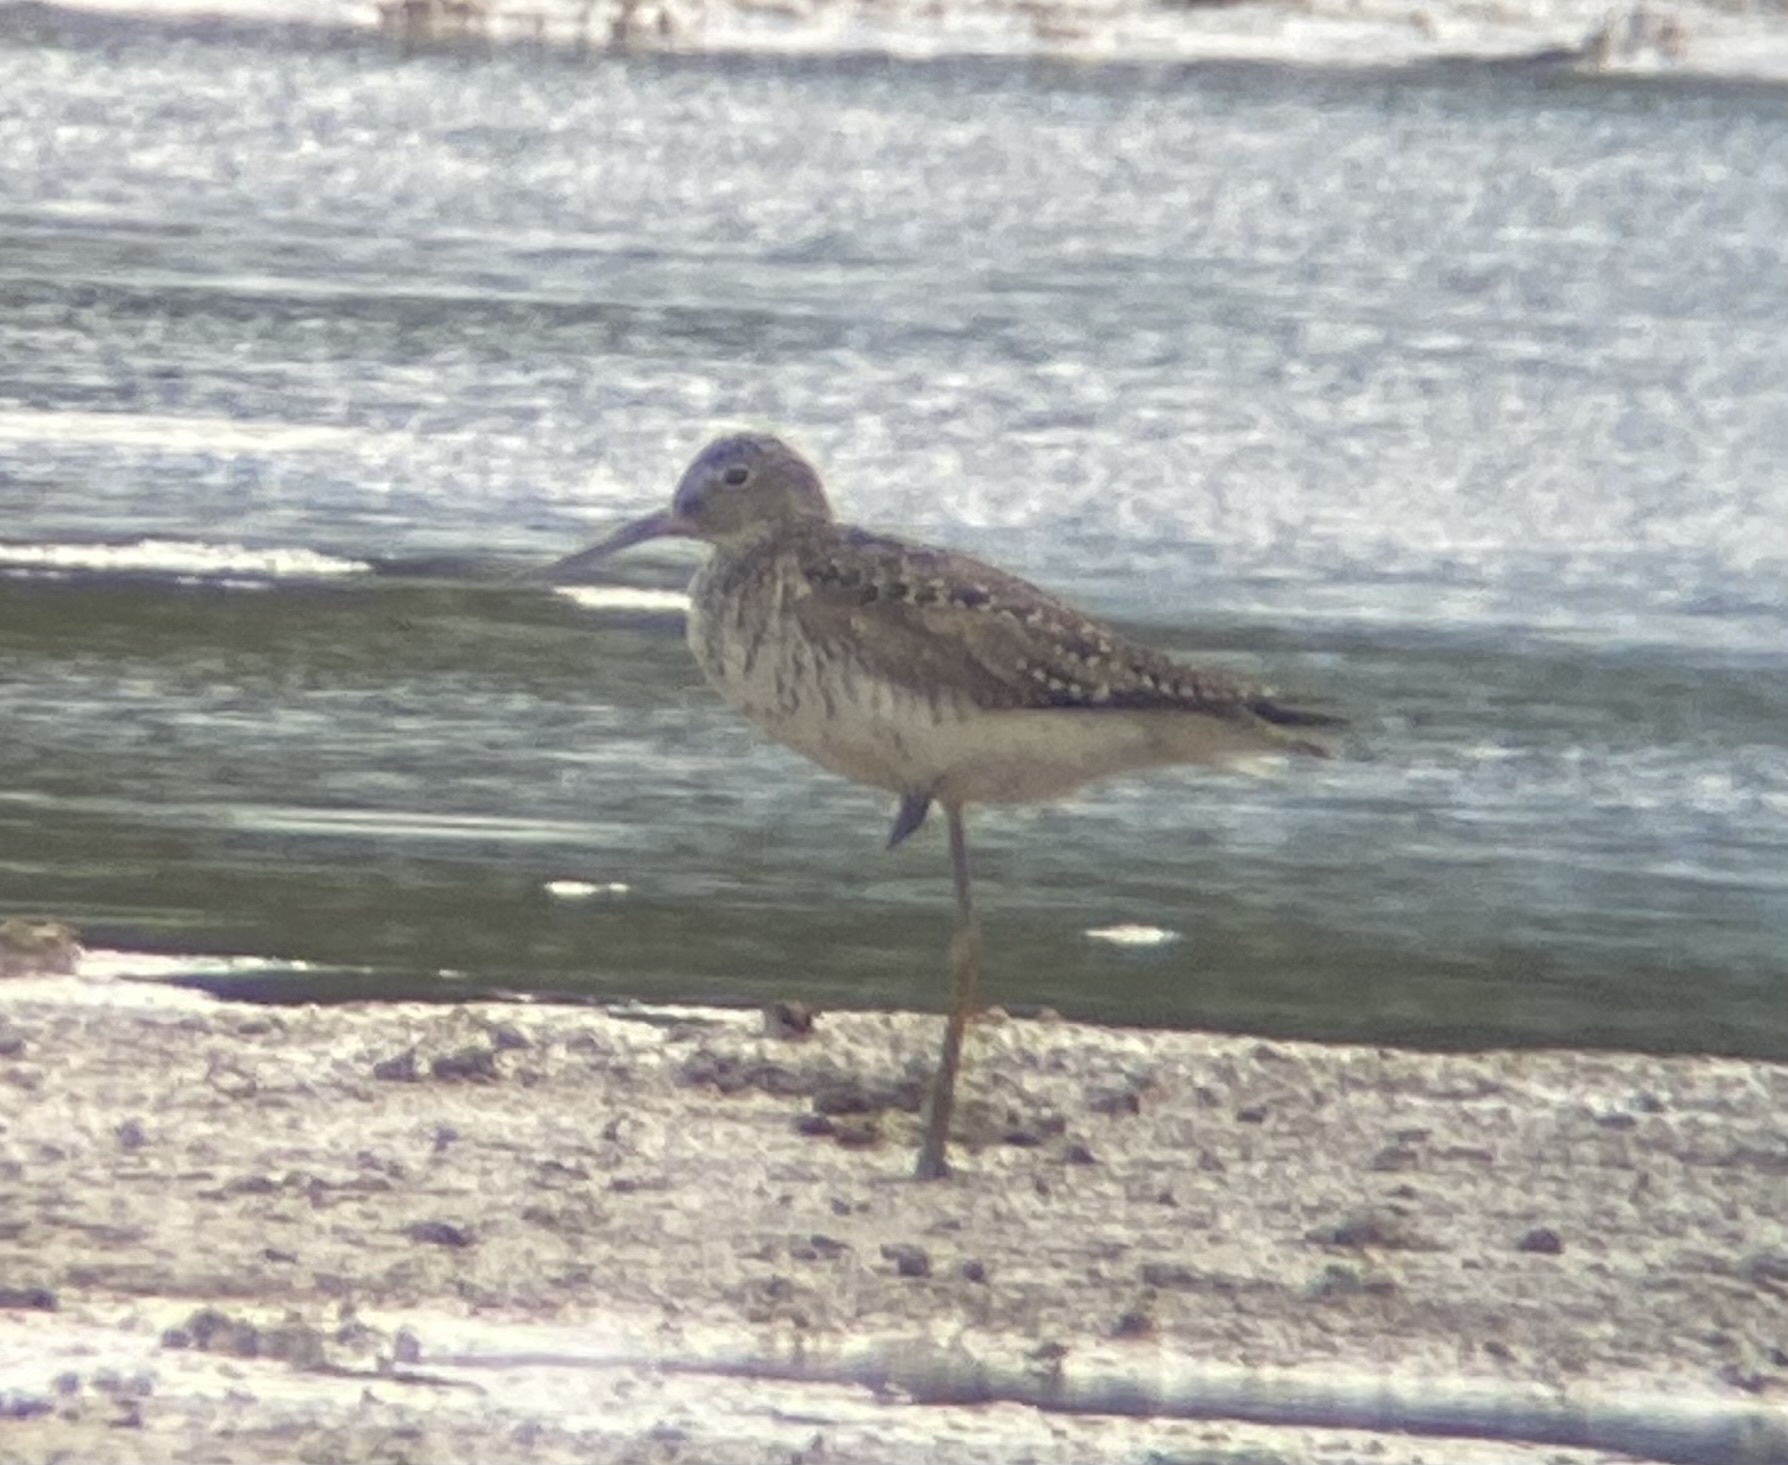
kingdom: Animalia
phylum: Chordata
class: Aves
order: Charadriiformes
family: Scolopacidae
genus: Tringa
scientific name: Tringa melanoleuca
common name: Greater yellowlegs
